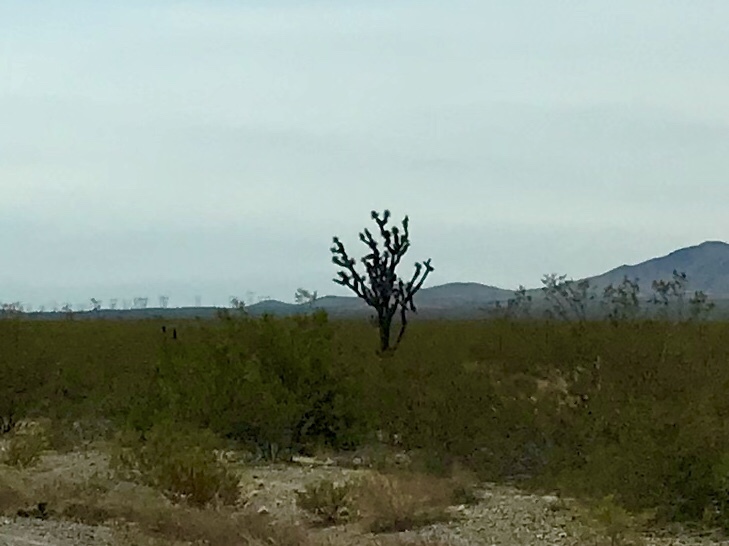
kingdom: Plantae
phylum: Tracheophyta
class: Liliopsida
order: Asparagales
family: Asparagaceae
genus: Yucca
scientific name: Yucca brevifolia
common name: Joshua tree
